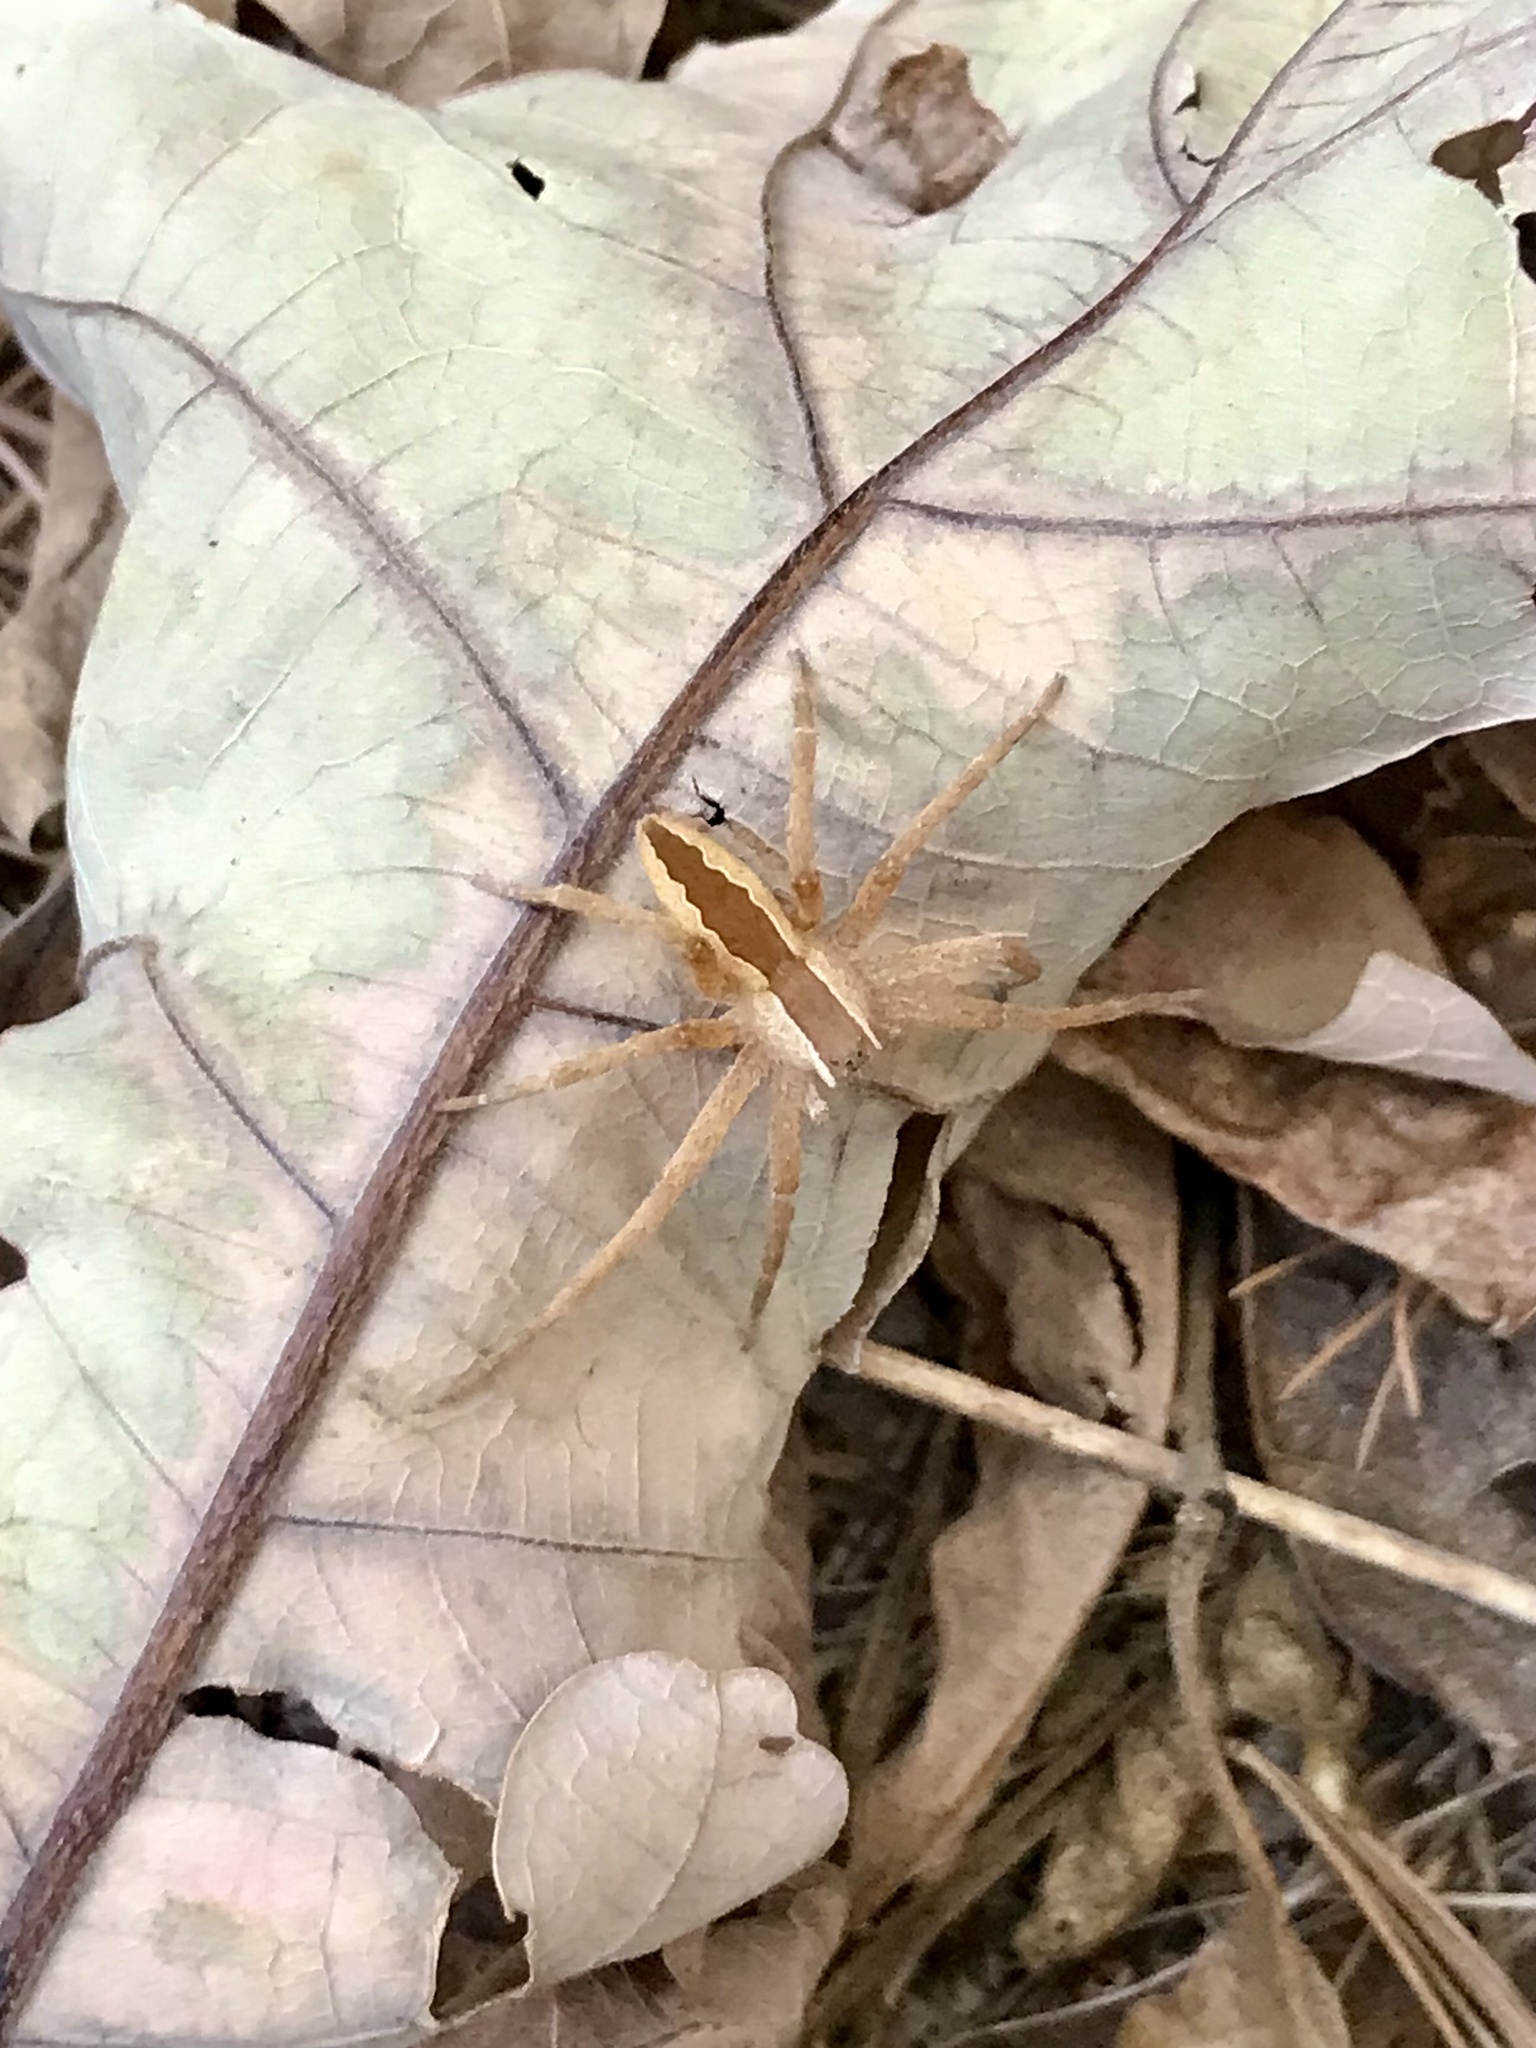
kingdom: Animalia
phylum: Arthropoda
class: Arachnida
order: Araneae
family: Pisauridae
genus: Pisaurina
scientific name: Pisaurina mira
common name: American nursery web spider
